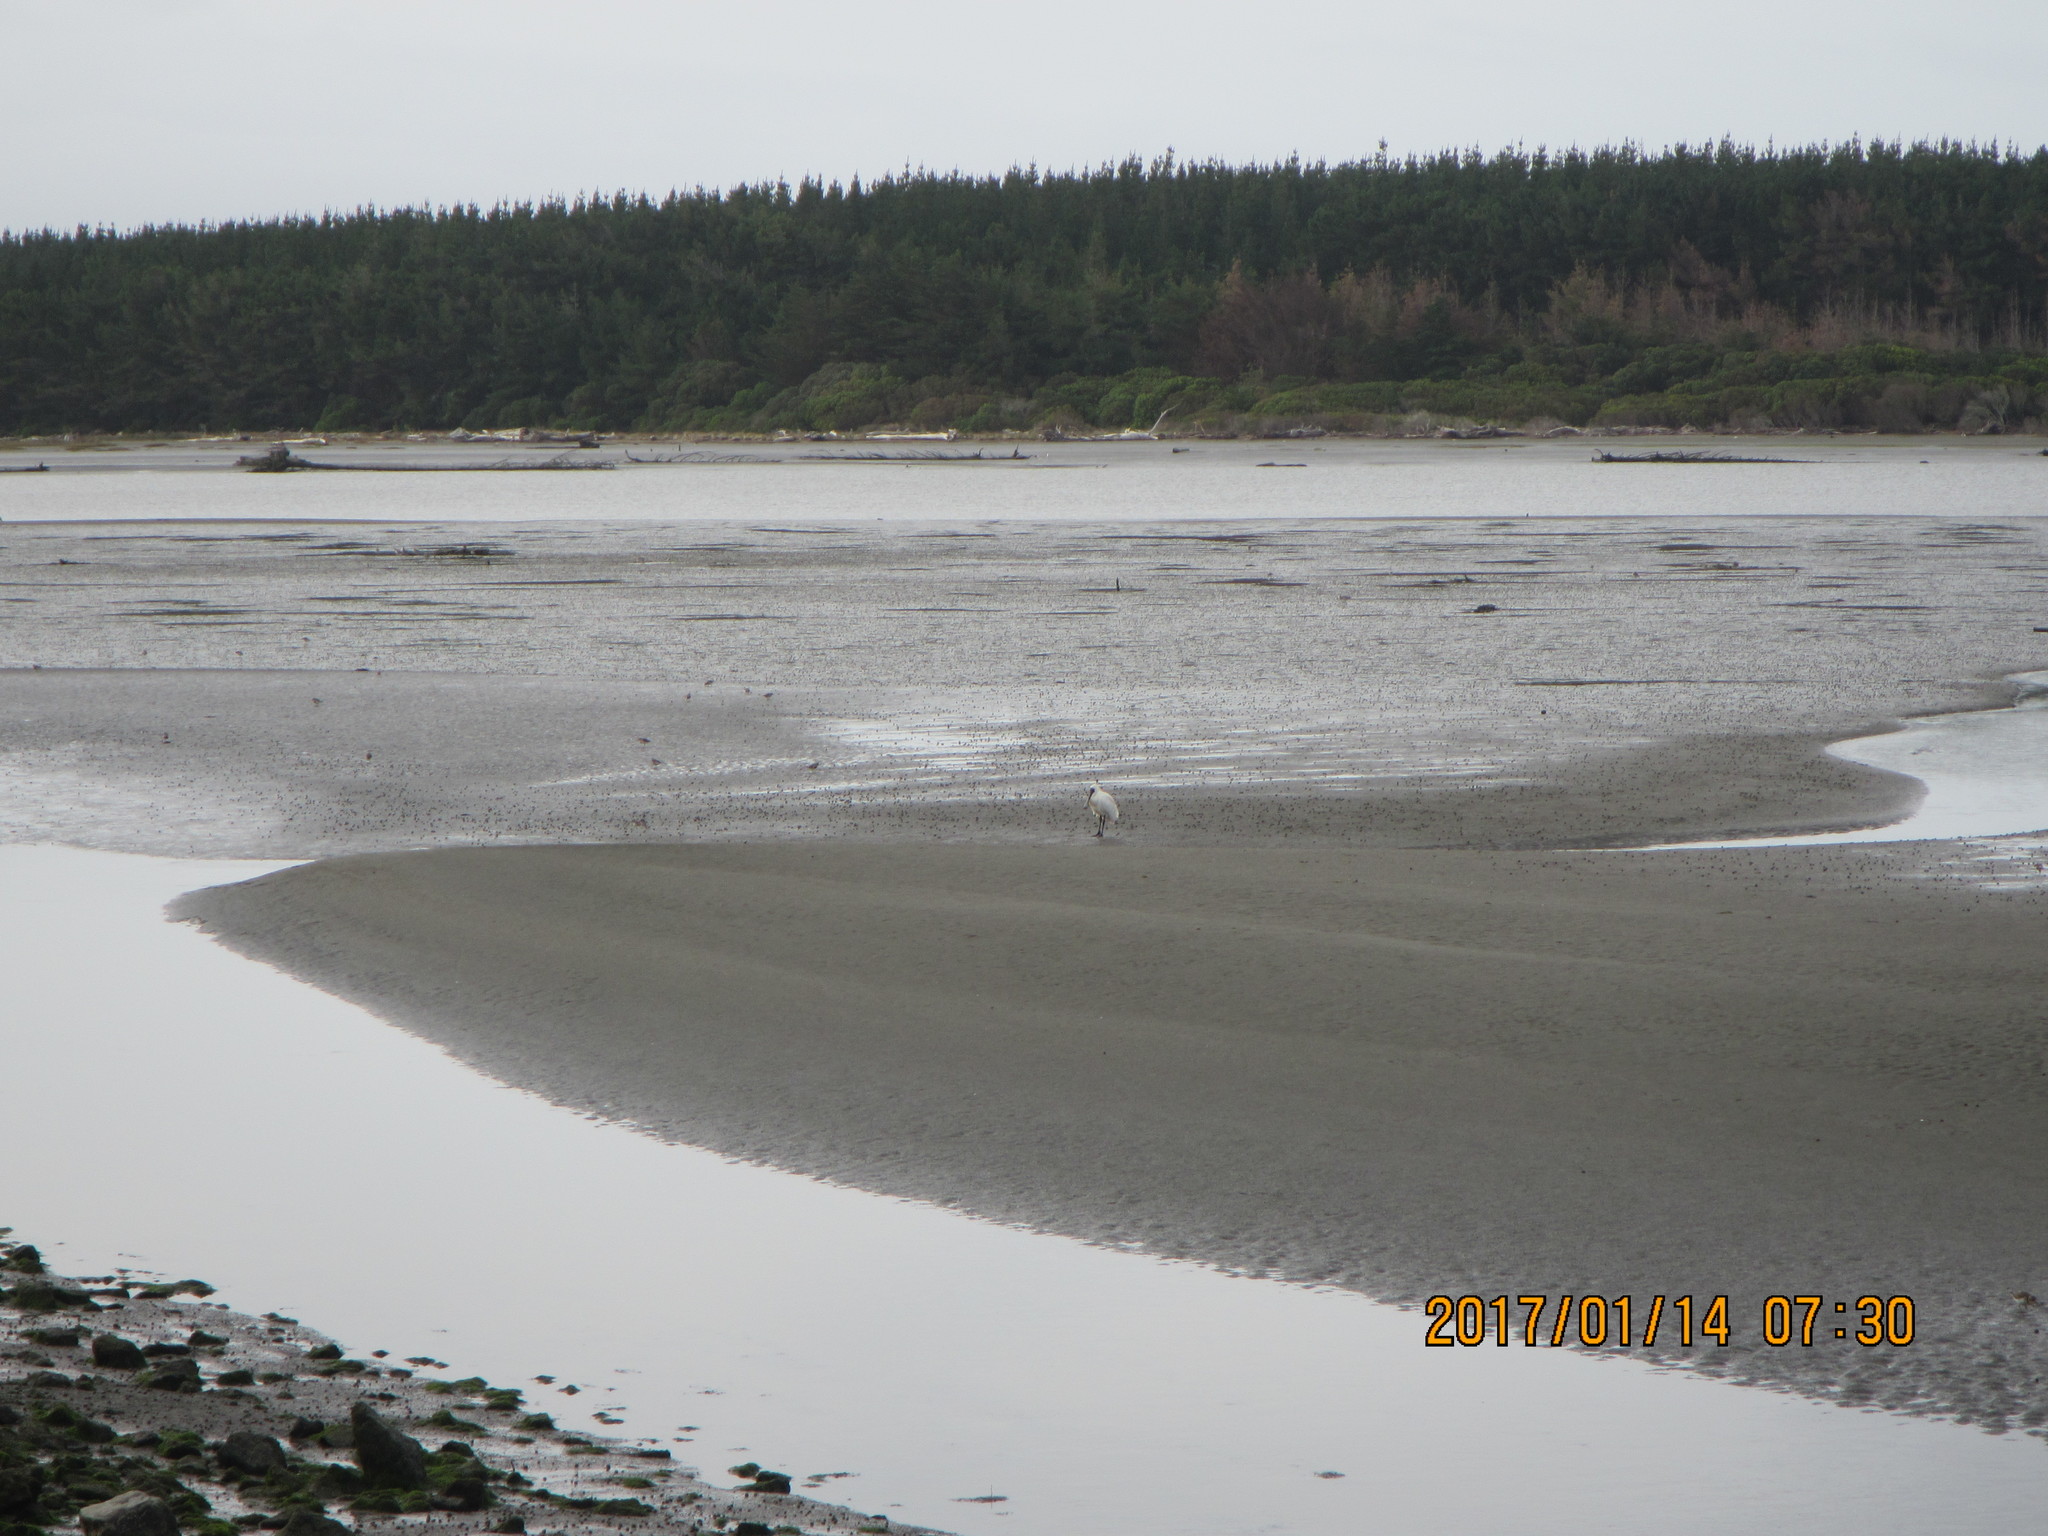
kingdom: Animalia
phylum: Chordata
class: Aves
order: Pelecaniformes
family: Threskiornithidae
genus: Platalea
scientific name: Platalea regia
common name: Royal spoonbill
